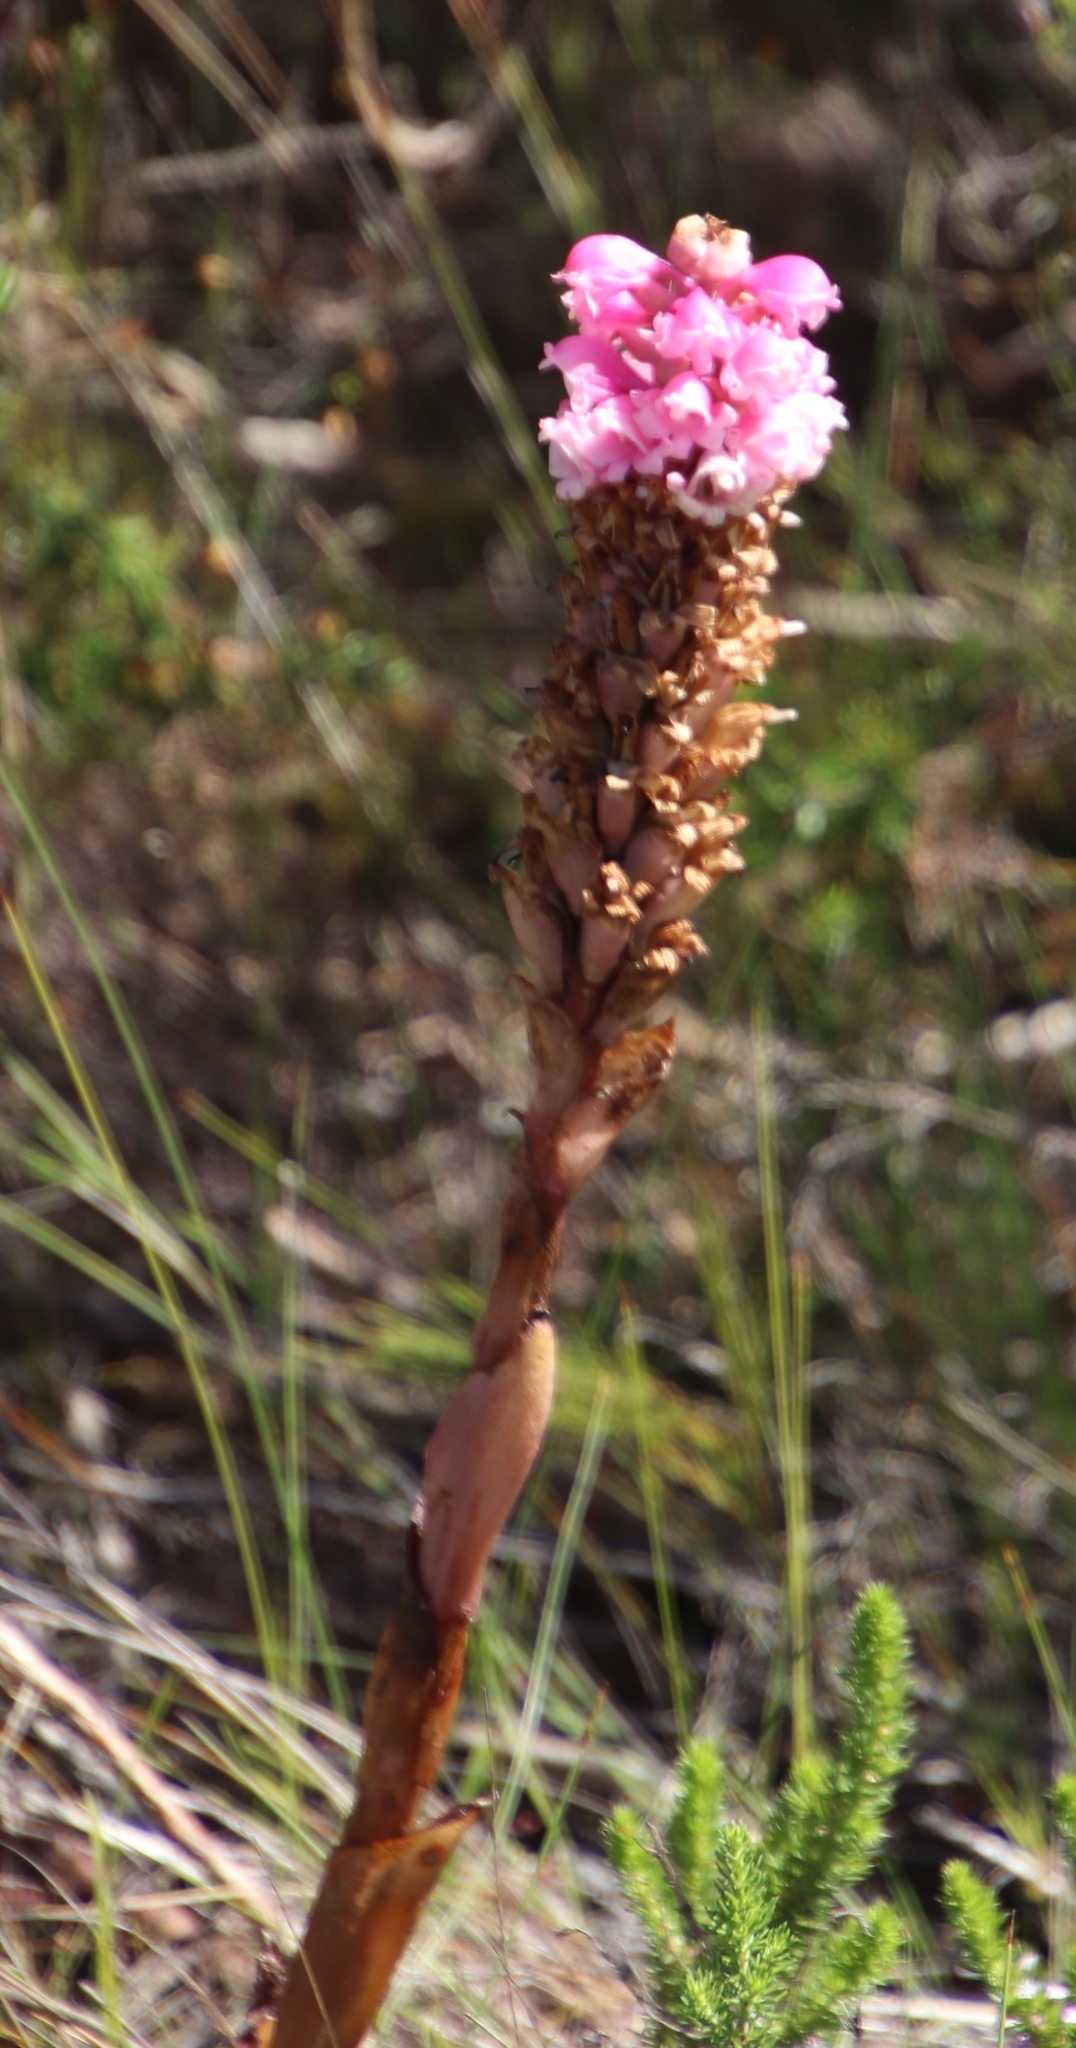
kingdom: Plantae
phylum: Tracheophyta
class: Liliopsida
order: Asparagales
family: Orchidaceae
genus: Satyrium
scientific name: Satyrium carneum
